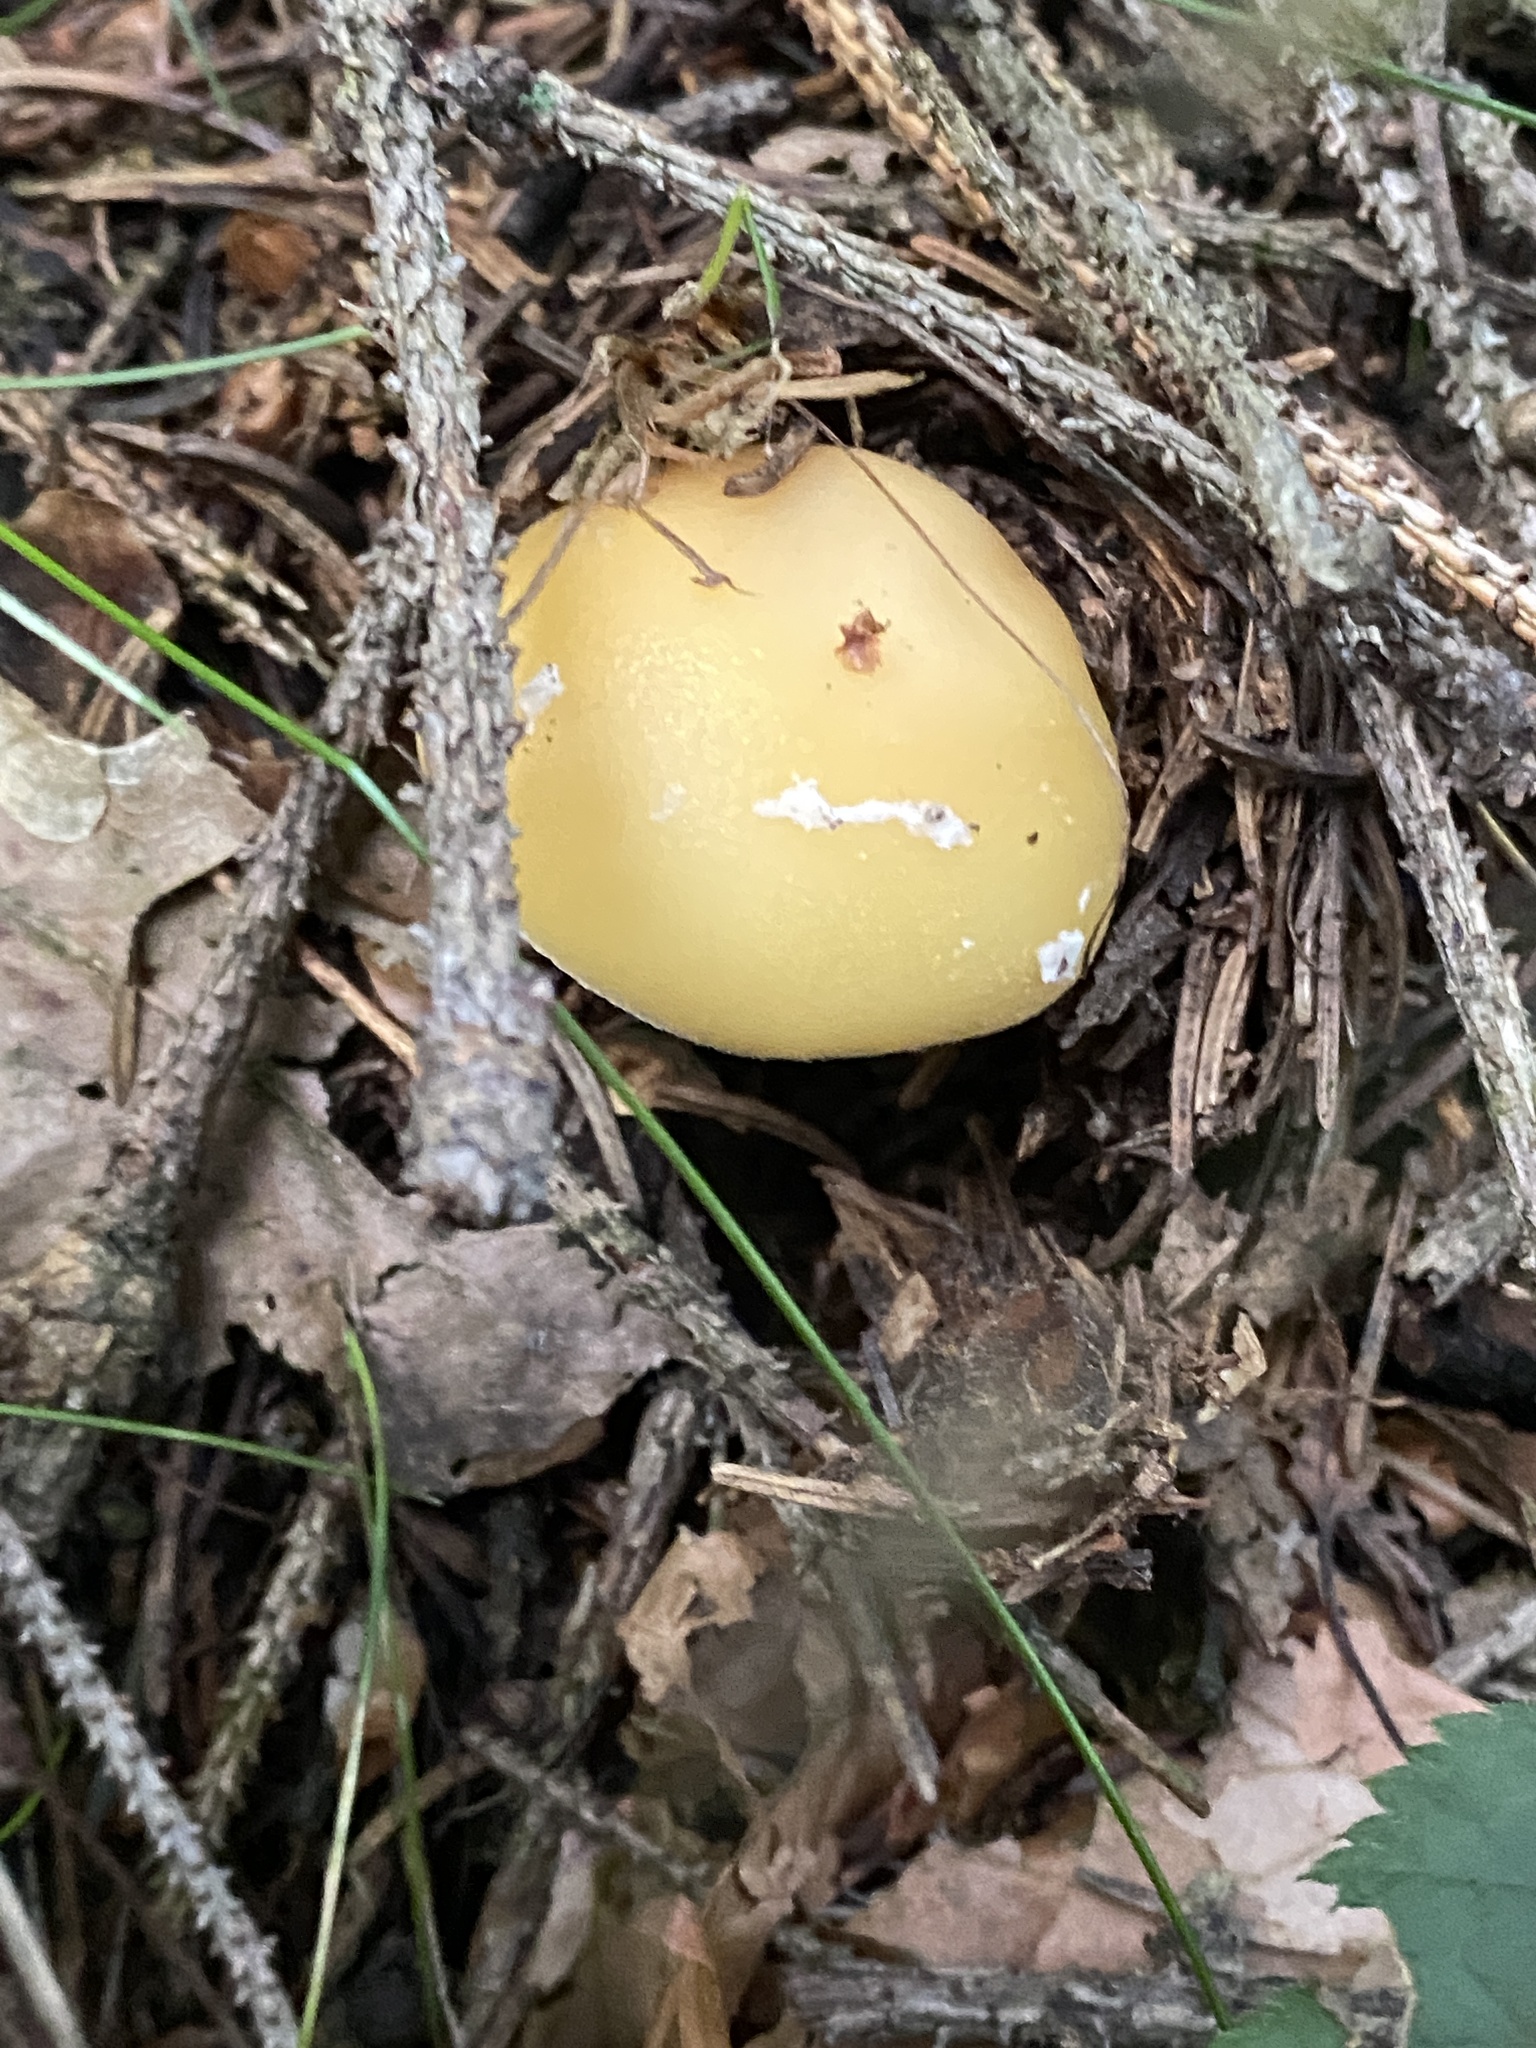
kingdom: Fungi
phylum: Basidiomycota
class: Agaricomycetes
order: Agaricales
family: Amanitaceae
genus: Amanita
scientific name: Amanita gemmata
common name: Jewelled amanita
